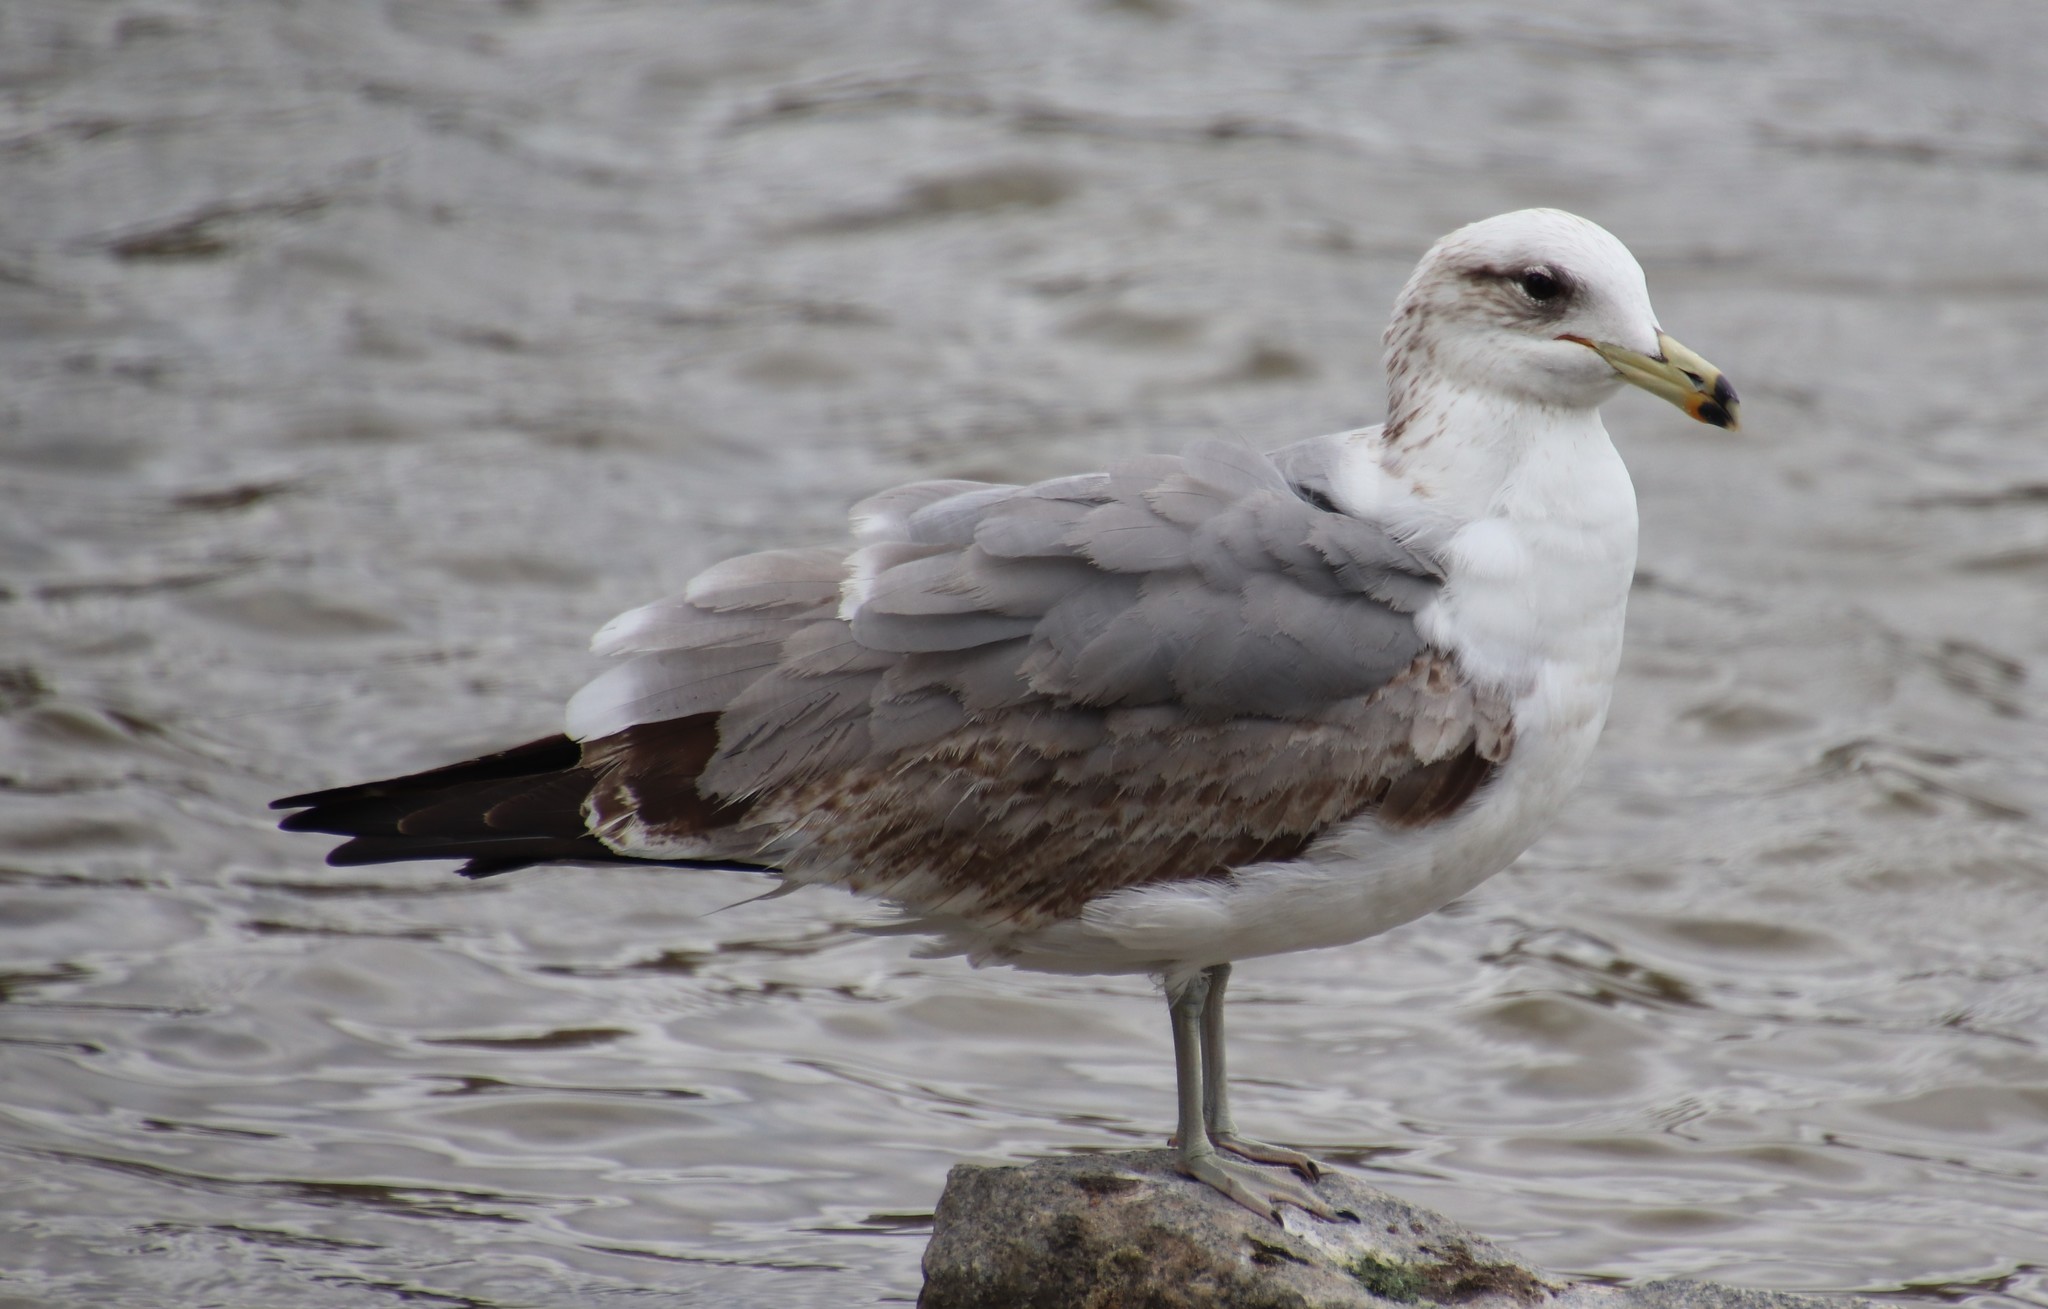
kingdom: Animalia
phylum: Chordata
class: Aves
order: Charadriiformes
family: Laridae
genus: Larus
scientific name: Larus californicus
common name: California gull
